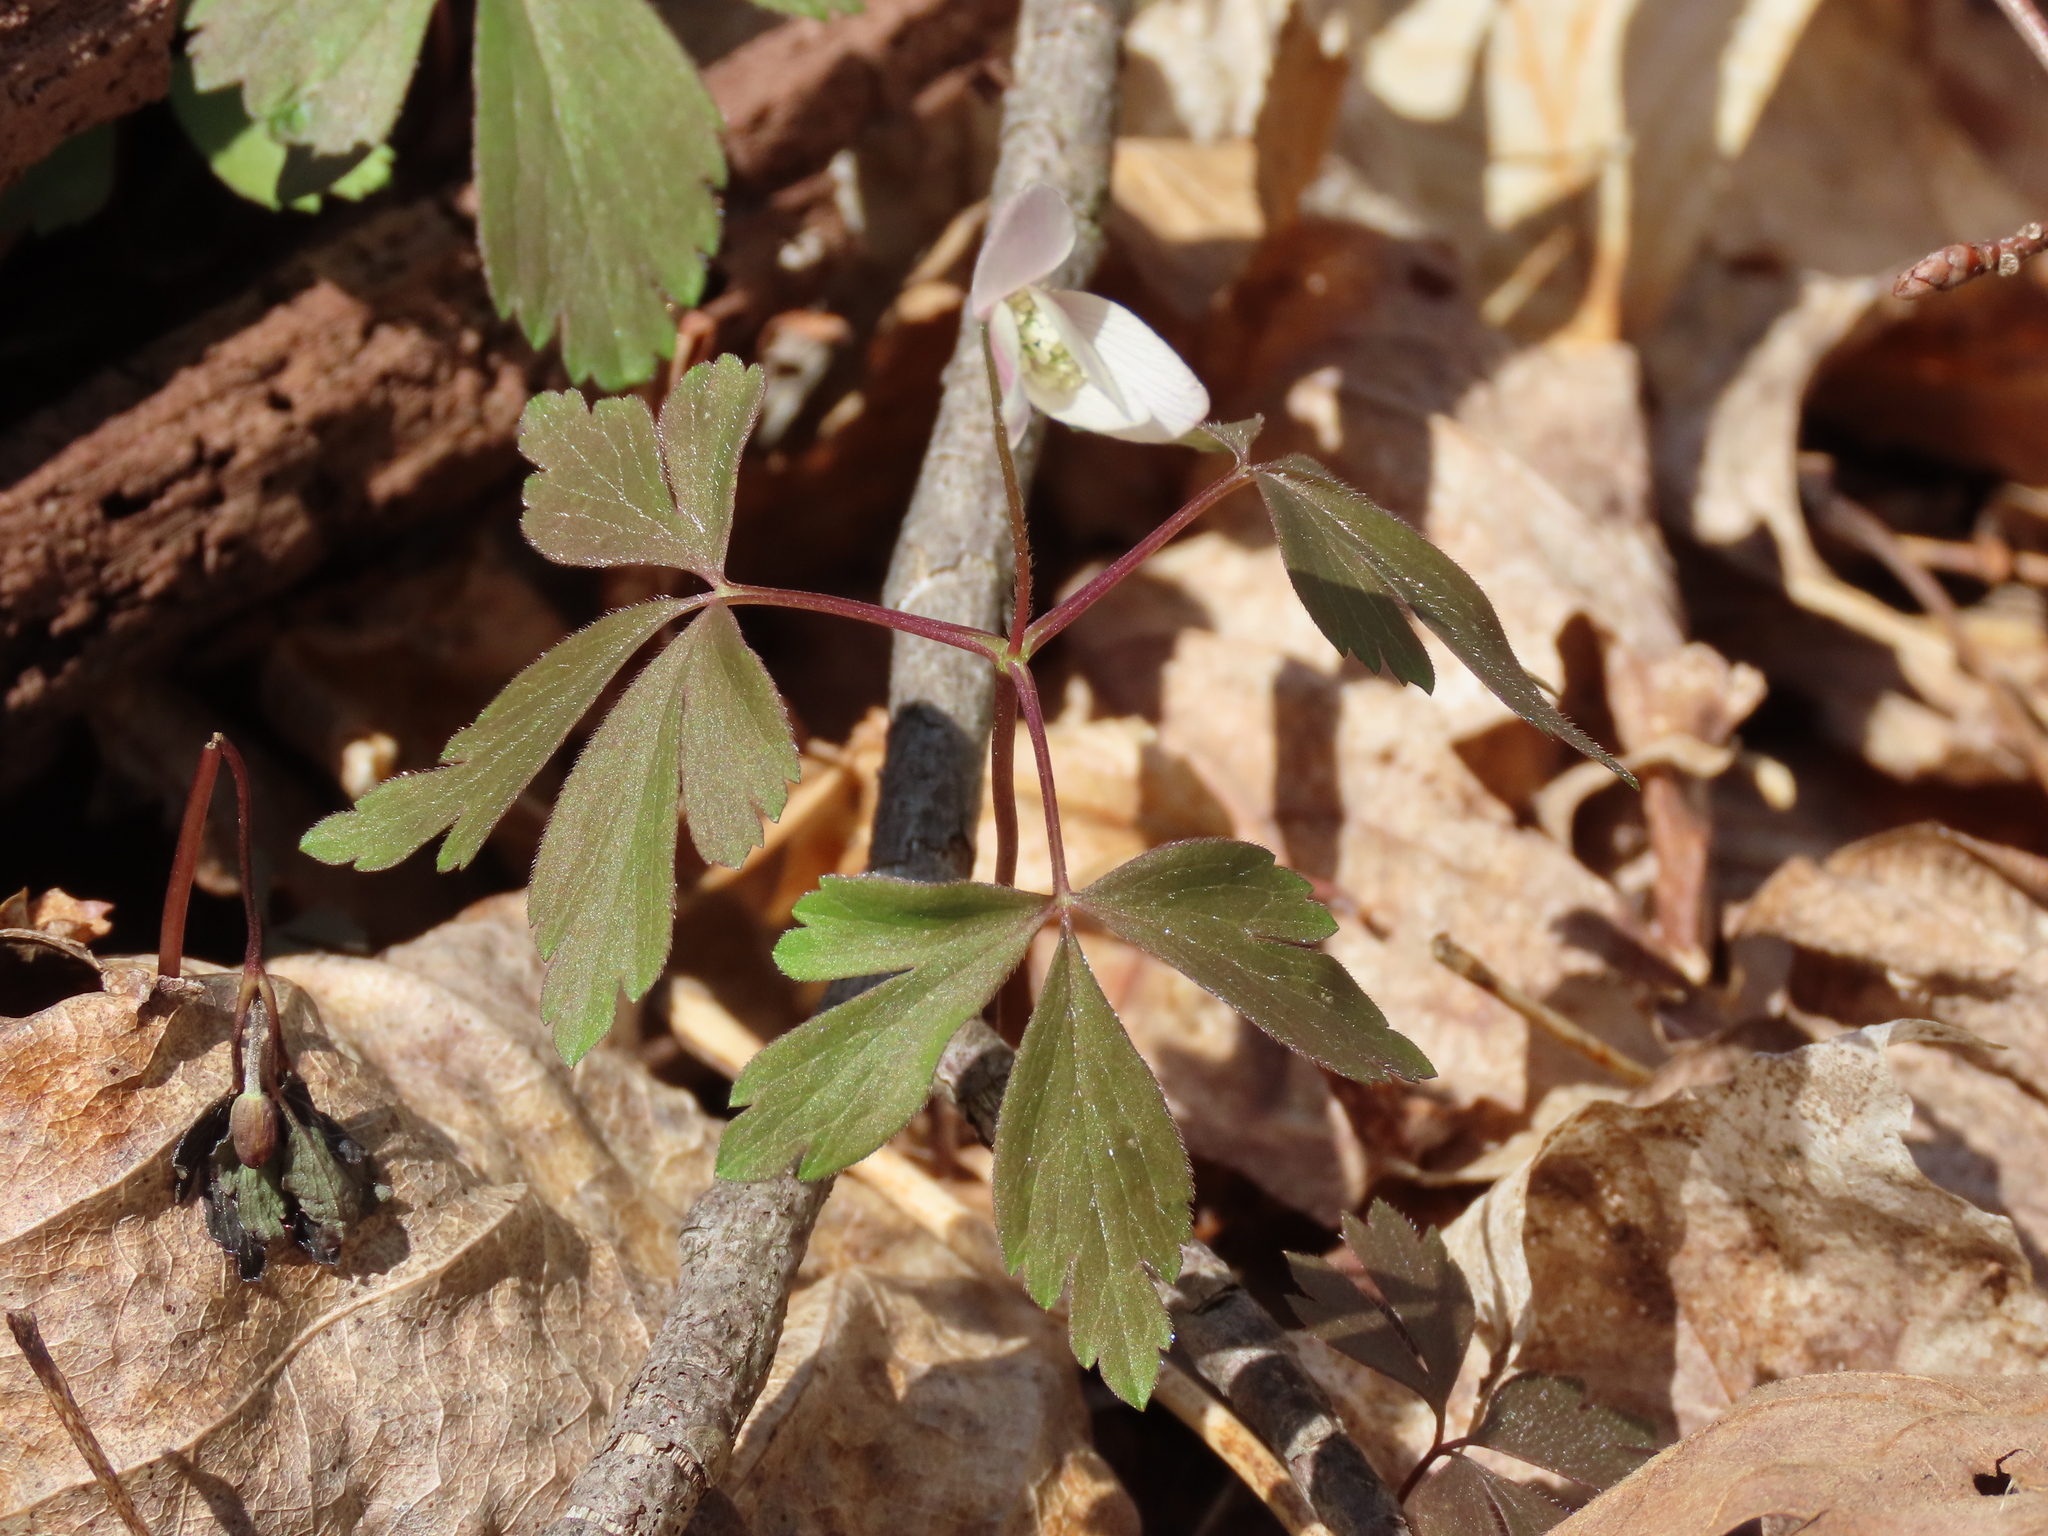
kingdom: Plantae
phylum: Tracheophyta
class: Magnoliopsida
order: Ranunculales
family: Ranunculaceae
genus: Anemone
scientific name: Anemone quinquefolia
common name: Wood anemone
